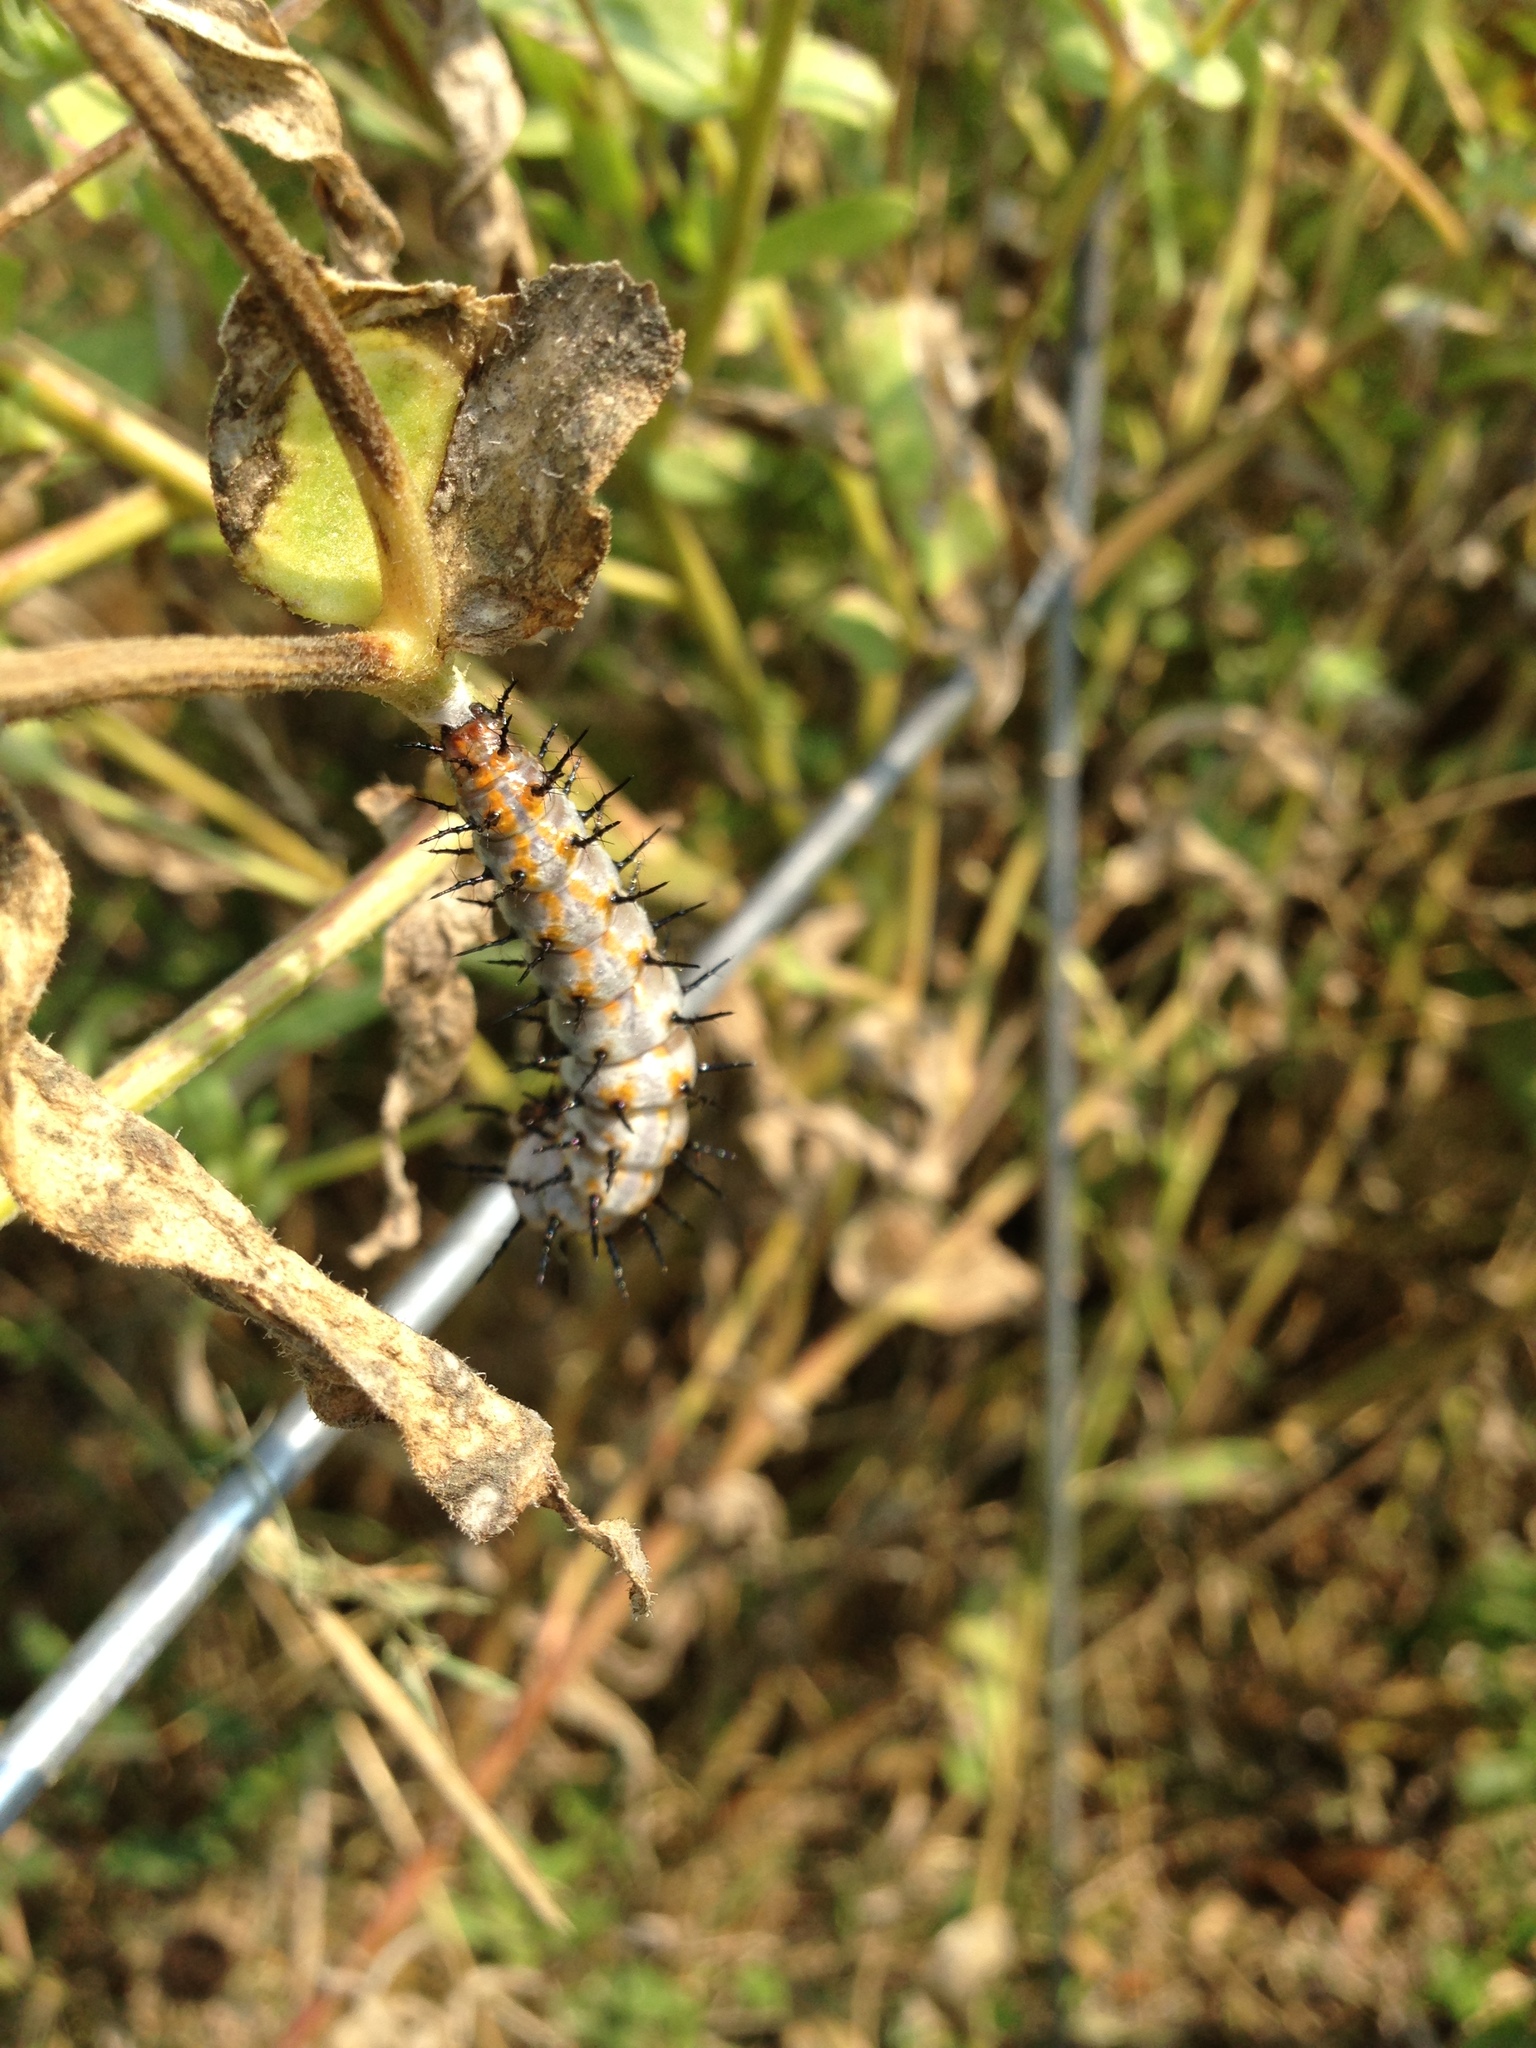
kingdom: Animalia
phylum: Arthropoda
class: Insecta
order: Lepidoptera
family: Nymphalidae
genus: Dione
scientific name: Dione vanillae
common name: Gulf fritillary
